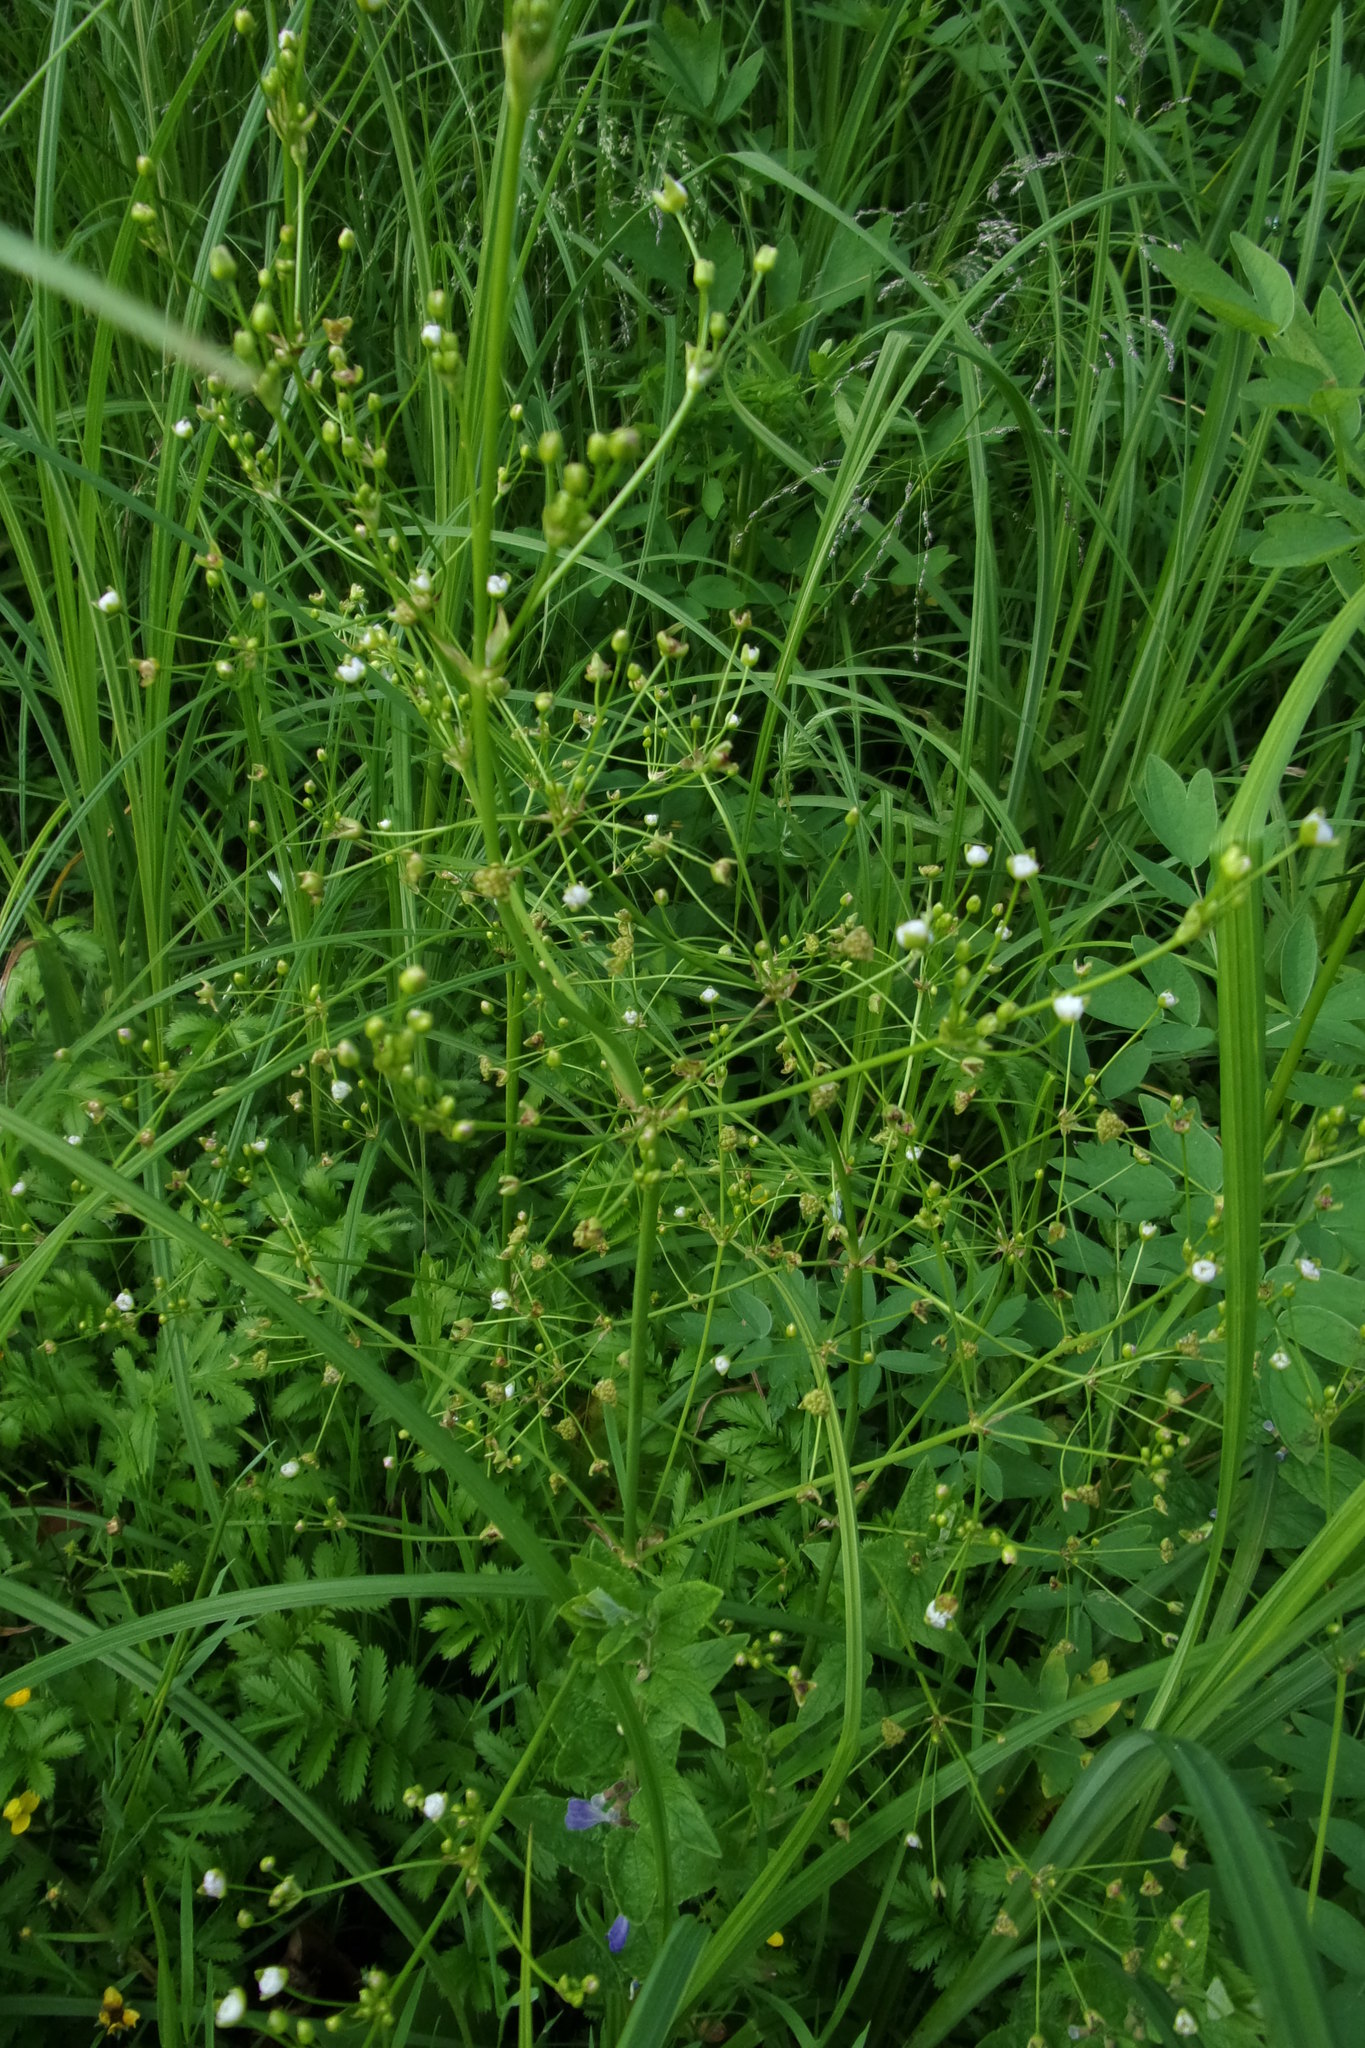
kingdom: Plantae
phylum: Tracheophyta
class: Liliopsida
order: Alismatales
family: Alismataceae
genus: Alisma
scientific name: Alisma plantago-aquatica
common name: Water-plantain
